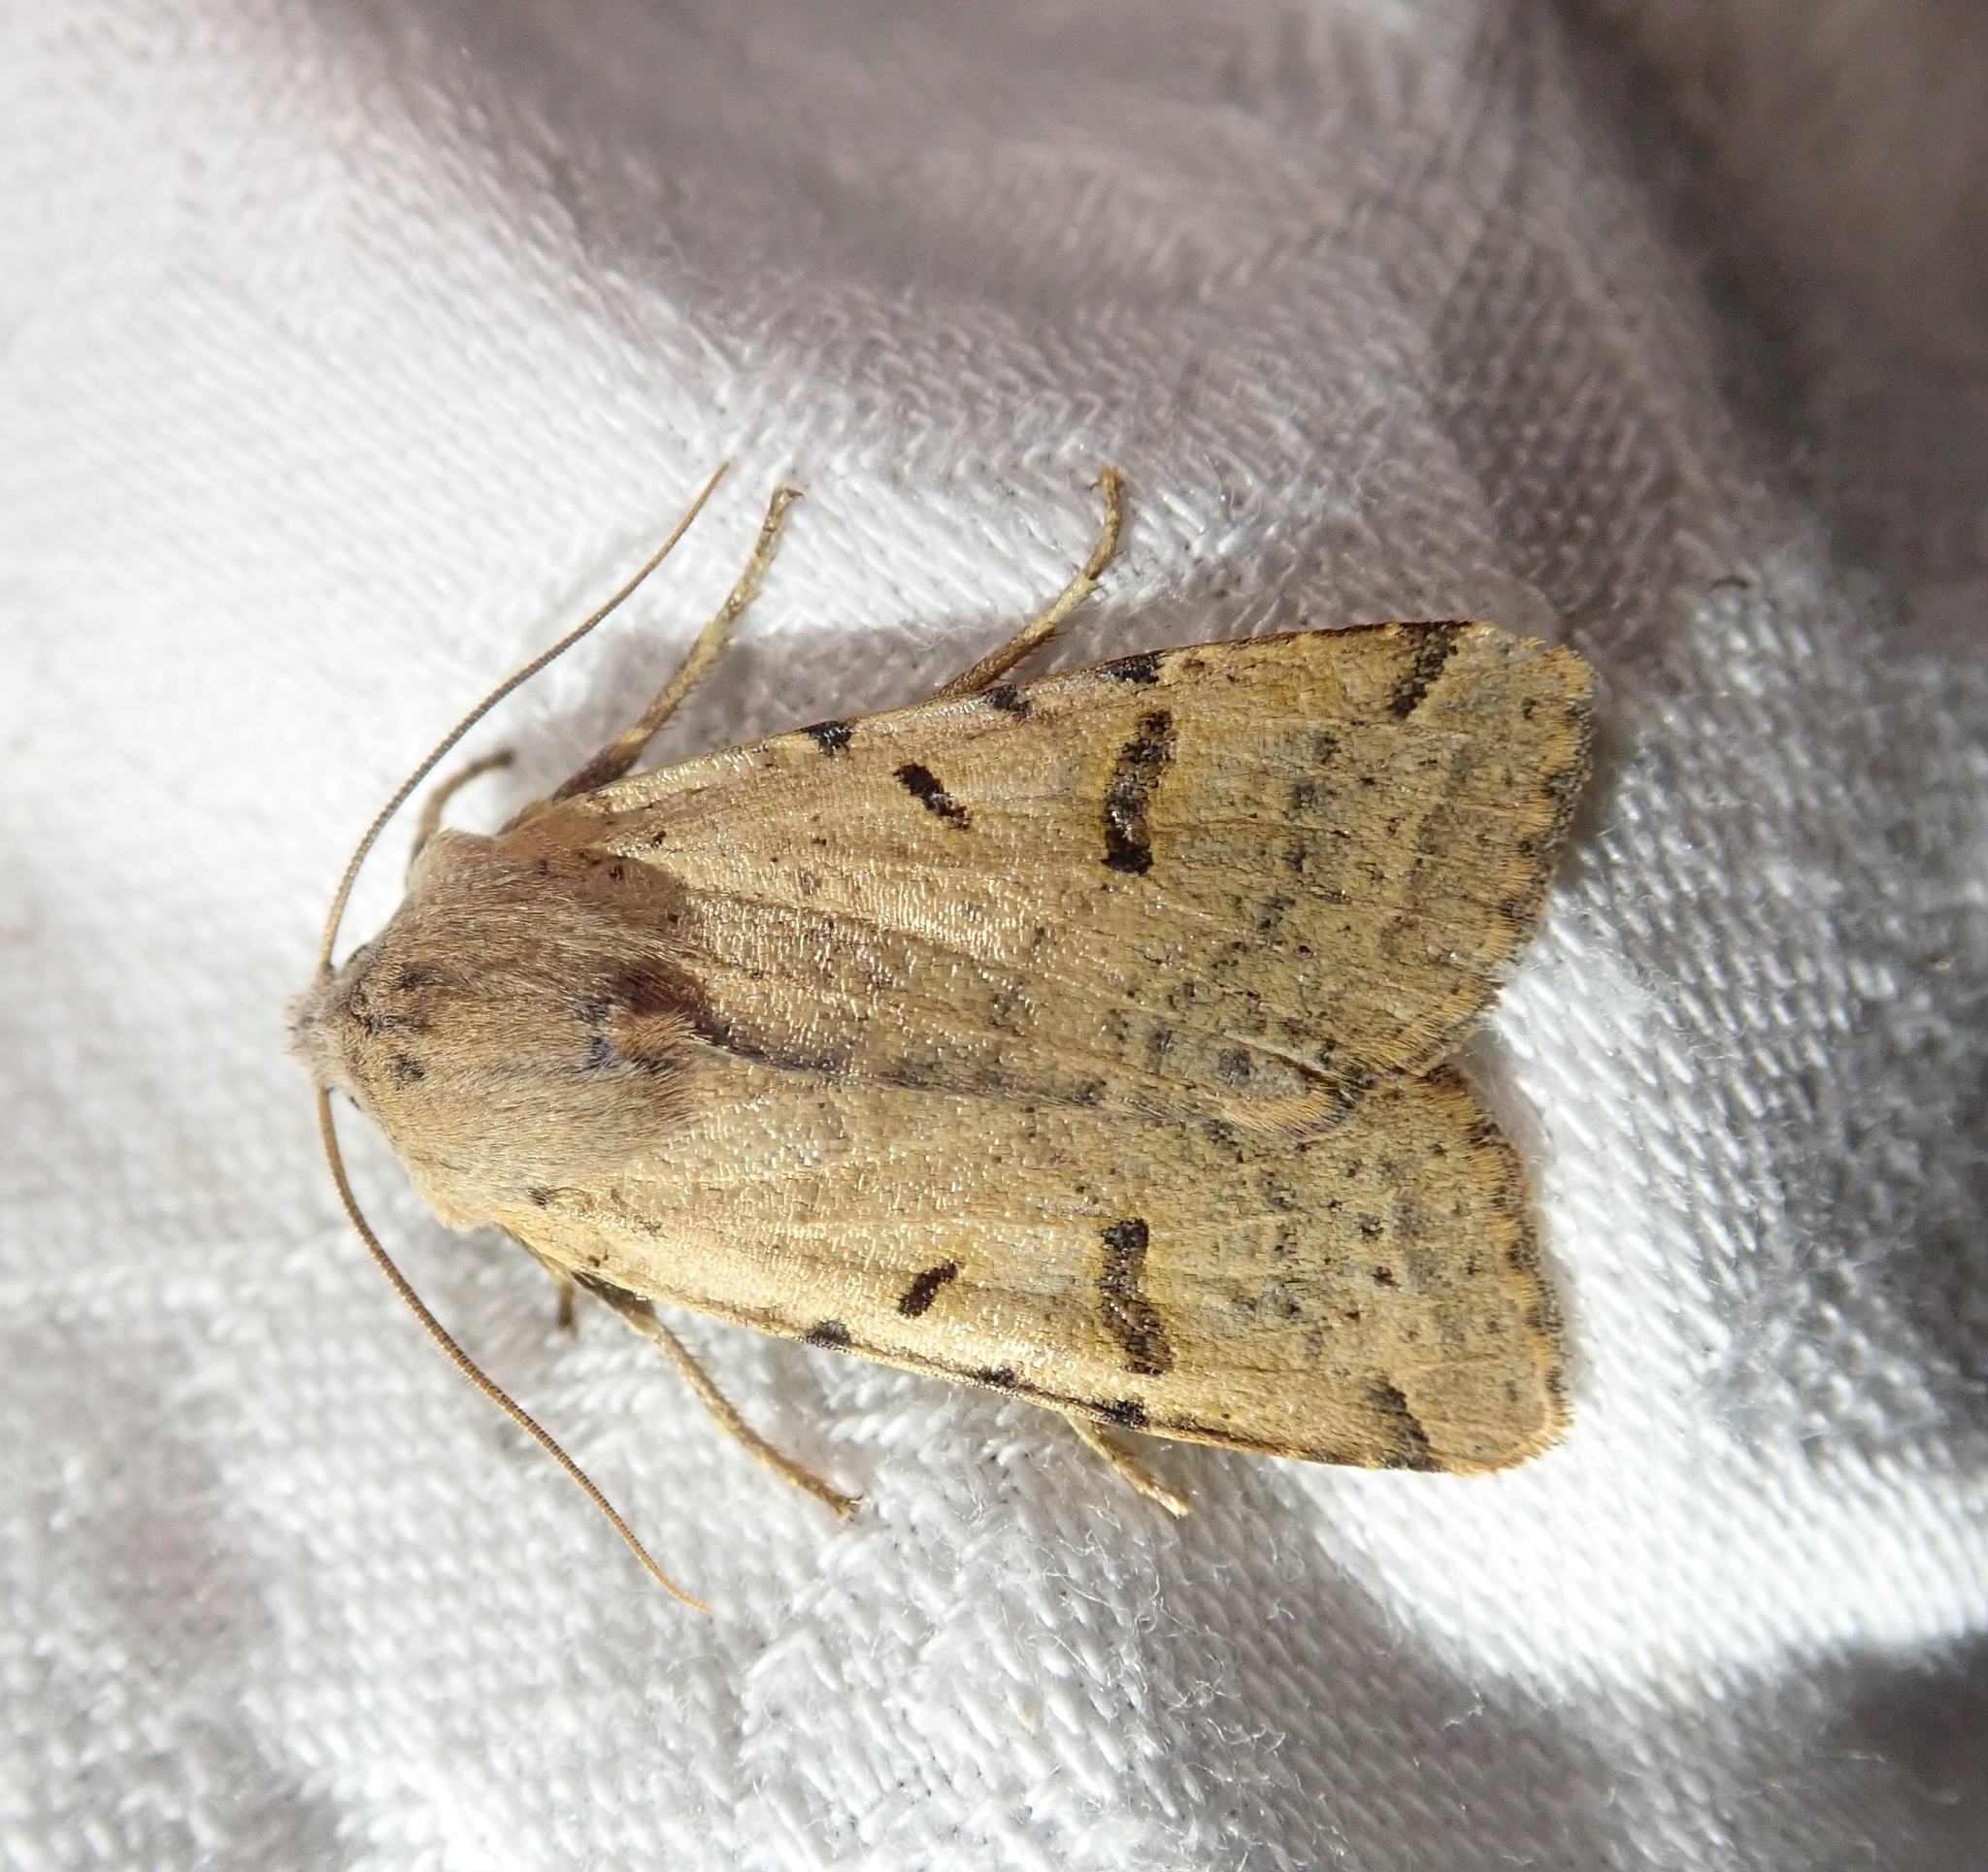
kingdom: Animalia
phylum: Arthropoda
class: Insecta
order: Lepidoptera
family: Noctuidae
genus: Agrochola
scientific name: Agrochola lychnidis
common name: Beaded chestnut
